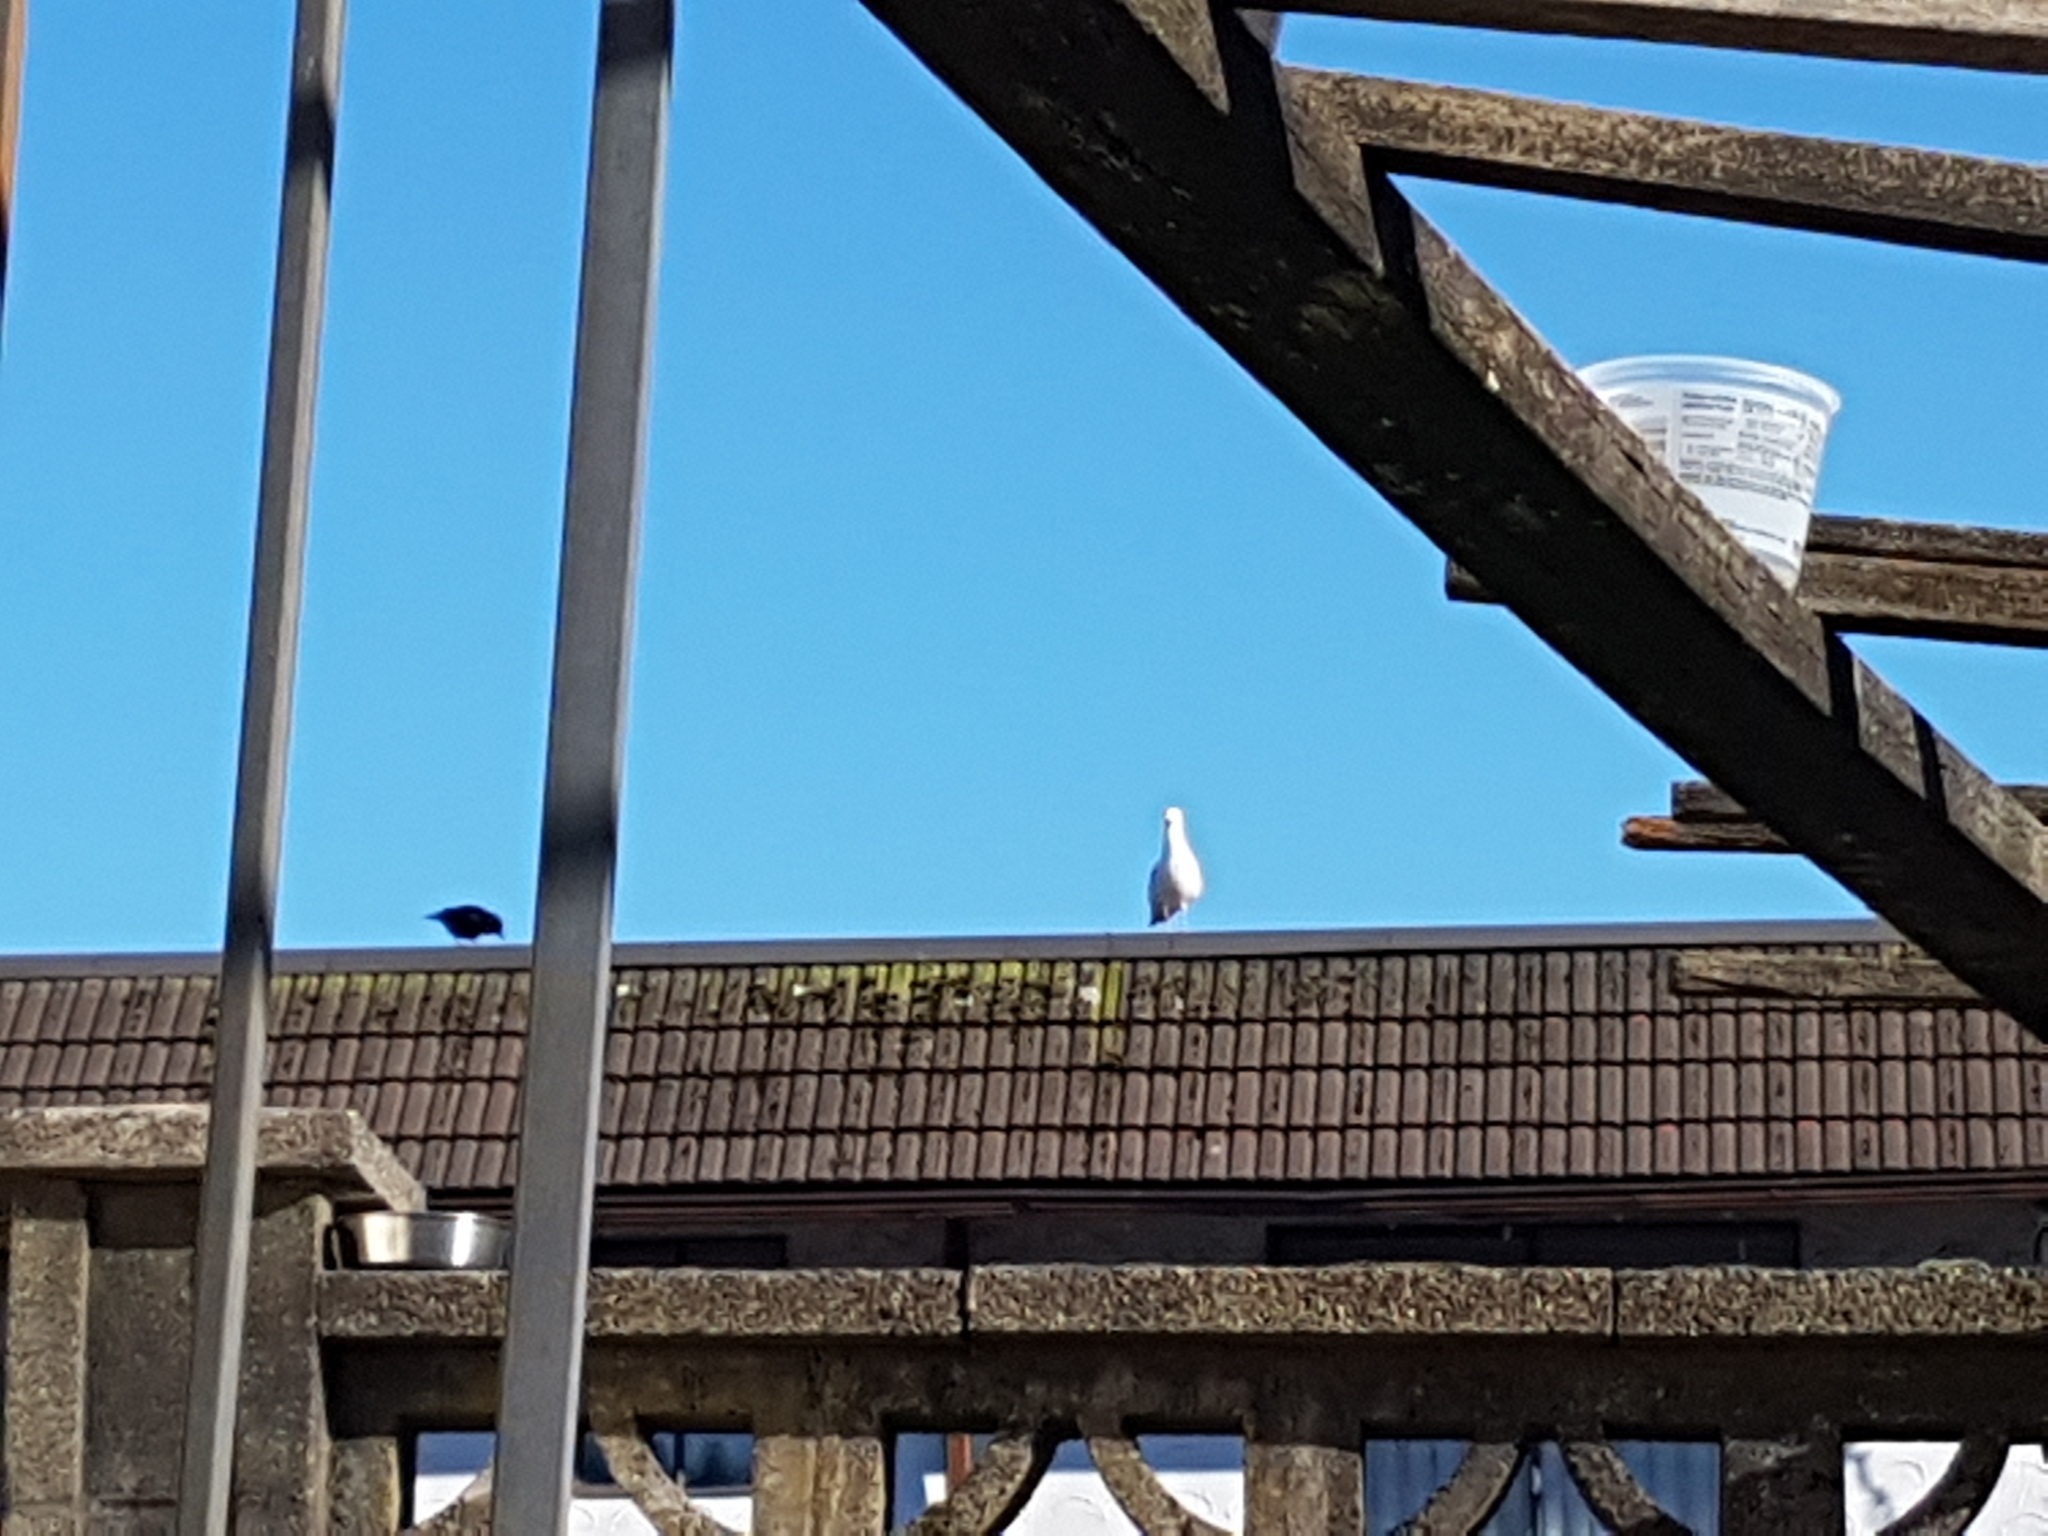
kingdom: Animalia
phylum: Chordata
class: Aves
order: Passeriformes
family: Corvidae
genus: Corvus
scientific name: Corvus brachyrhynchos
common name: American crow
